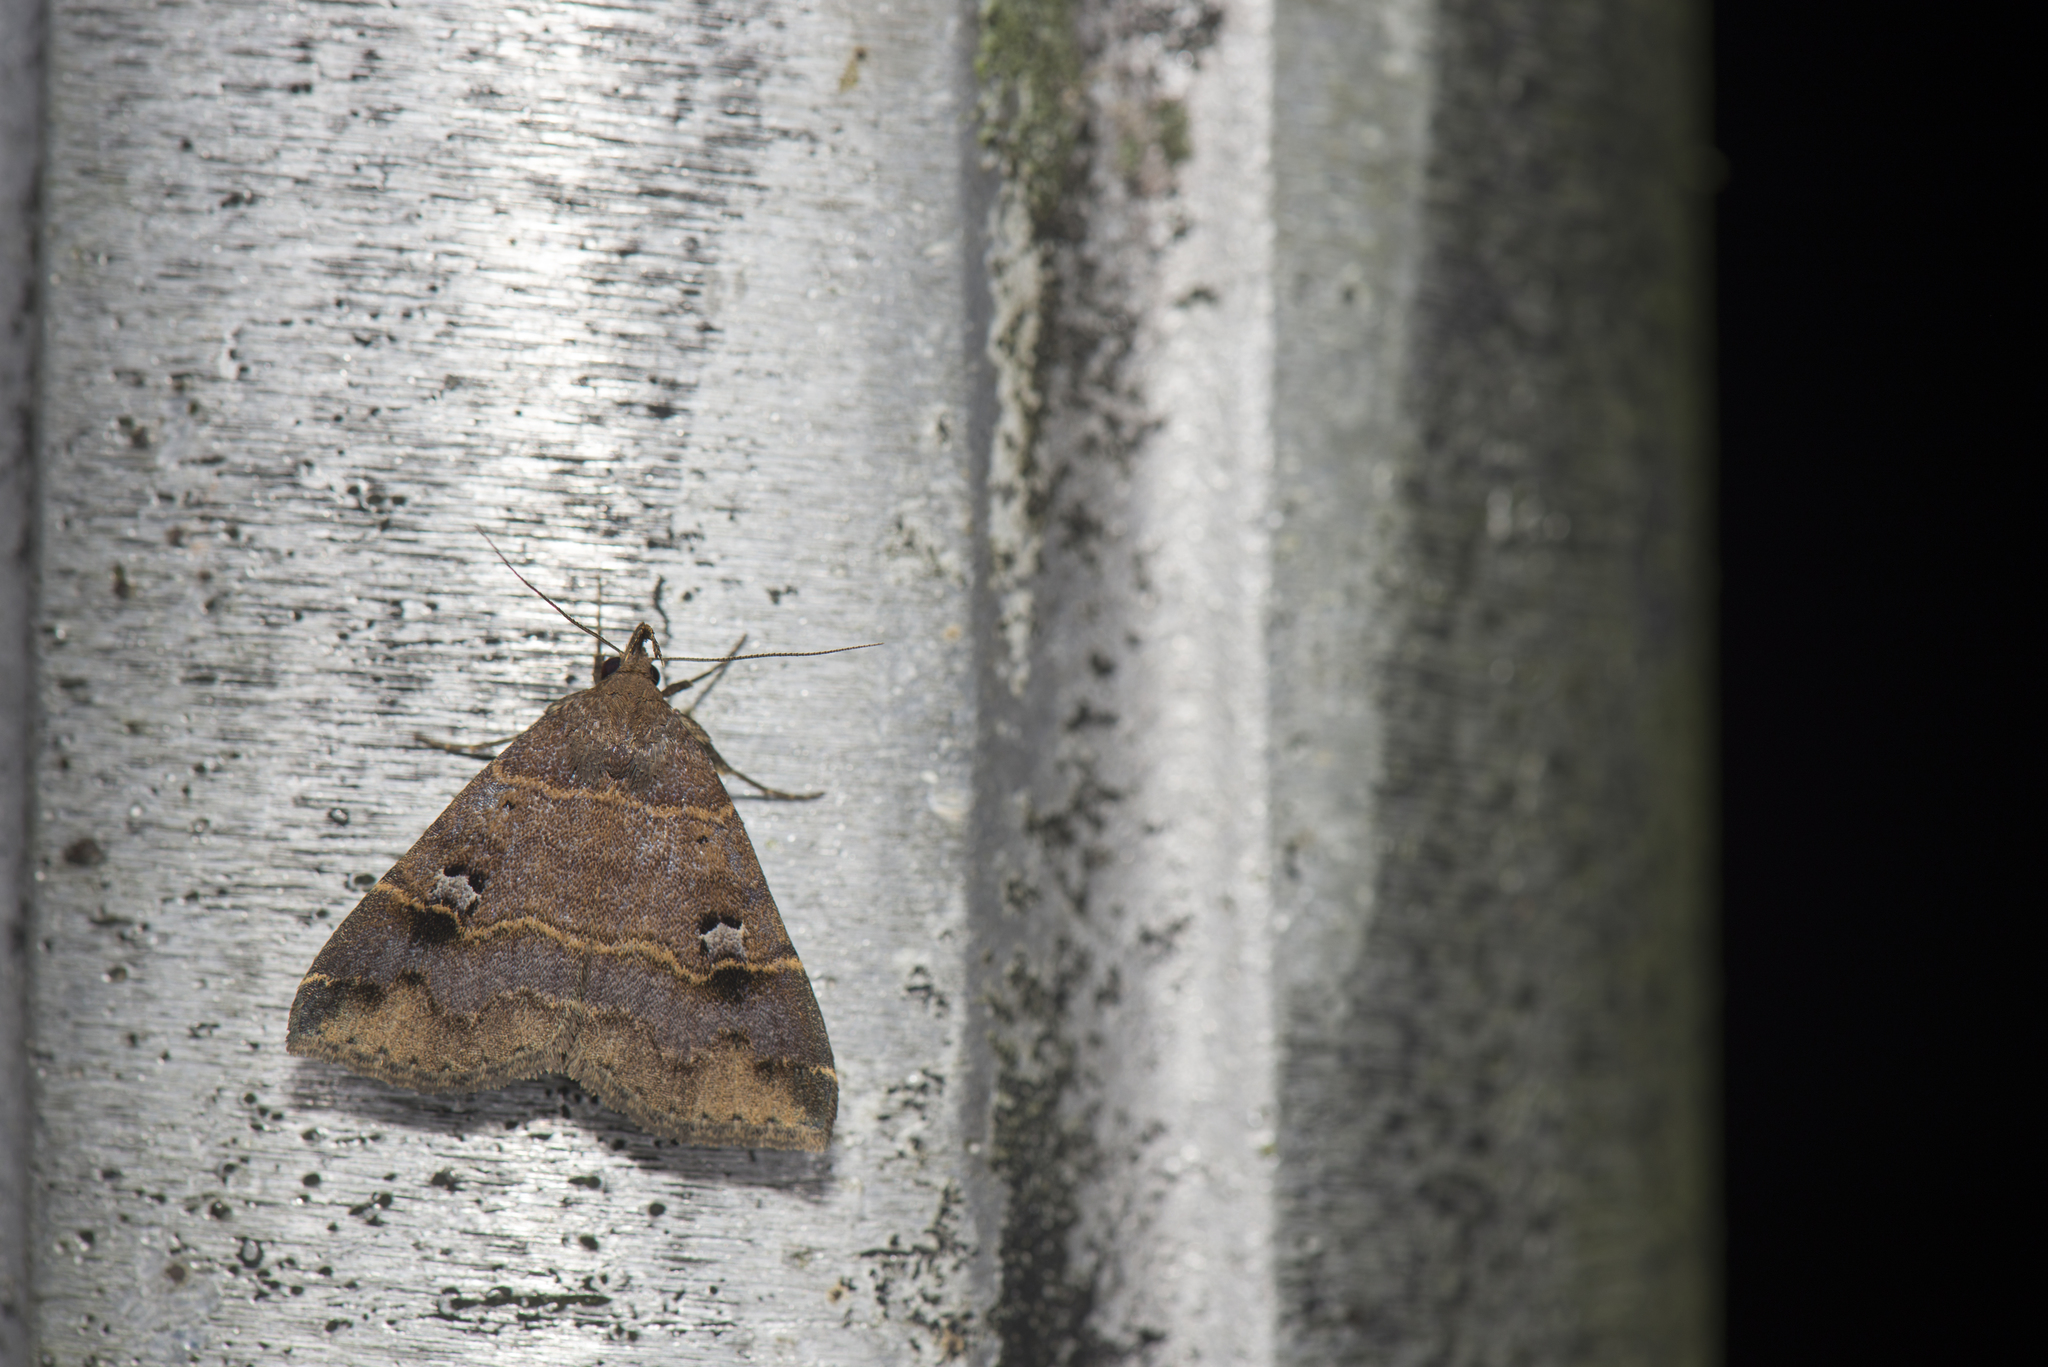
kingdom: Animalia
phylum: Arthropoda
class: Insecta
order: Lepidoptera
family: Erebidae
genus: Bertula
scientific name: Bertula hadenalis
